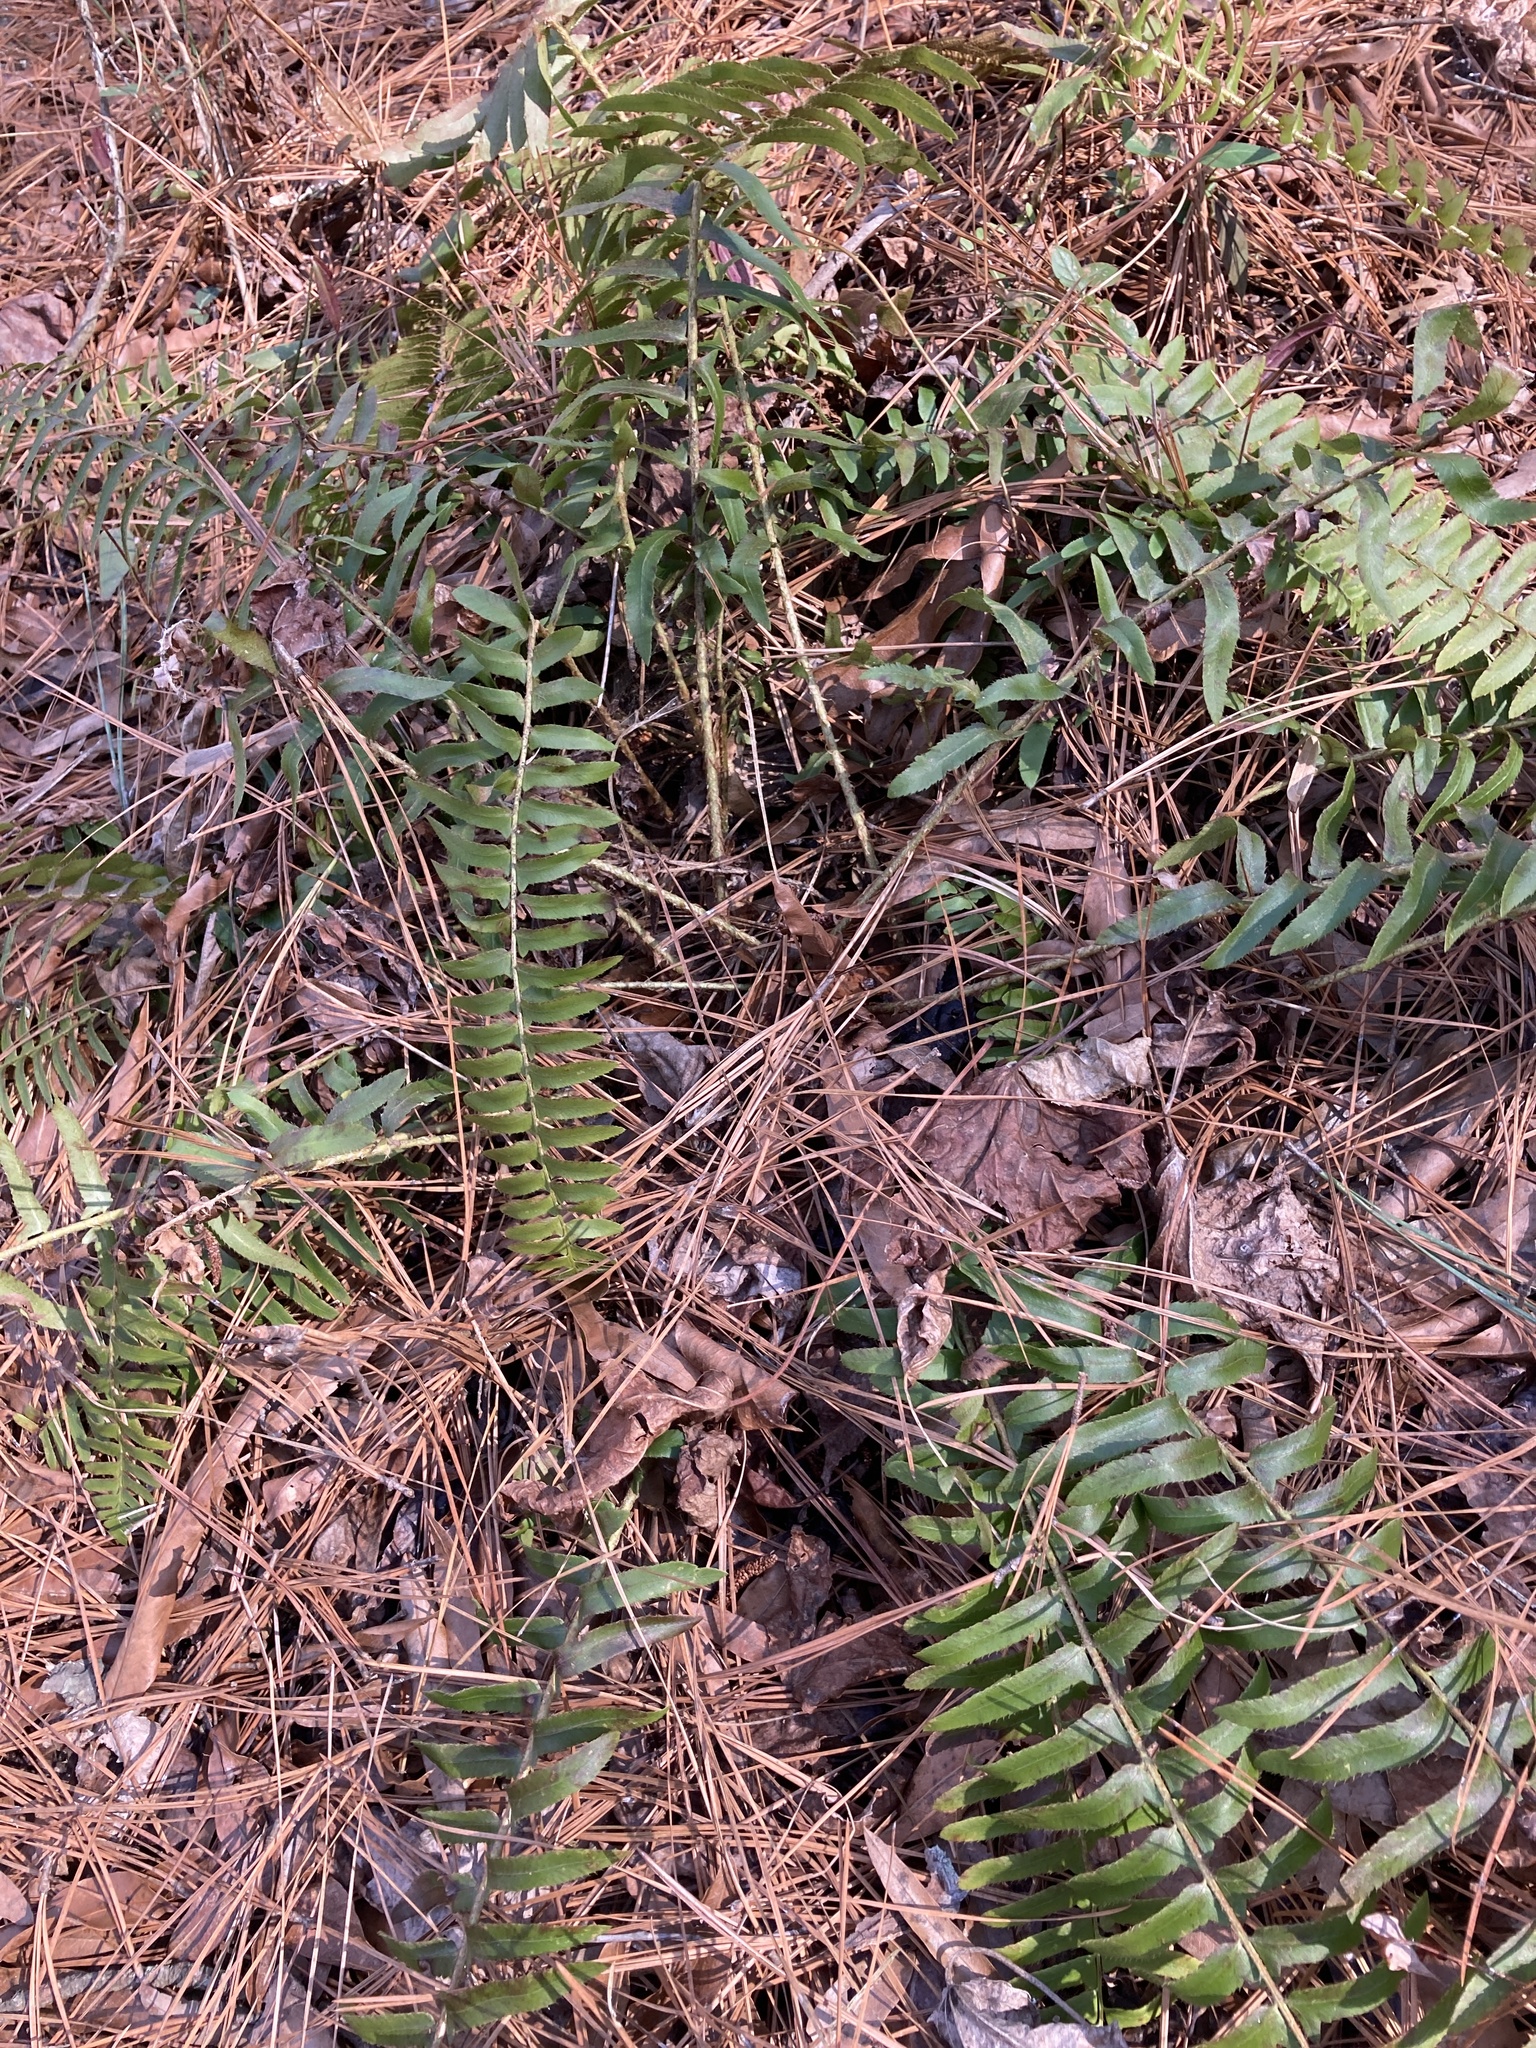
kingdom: Plantae
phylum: Tracheophyta
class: Polypodiopsida
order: Polypodiales
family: Dryopteridaceae
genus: Polystichum
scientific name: Polystichum acrostichoides
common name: Christmas fern
